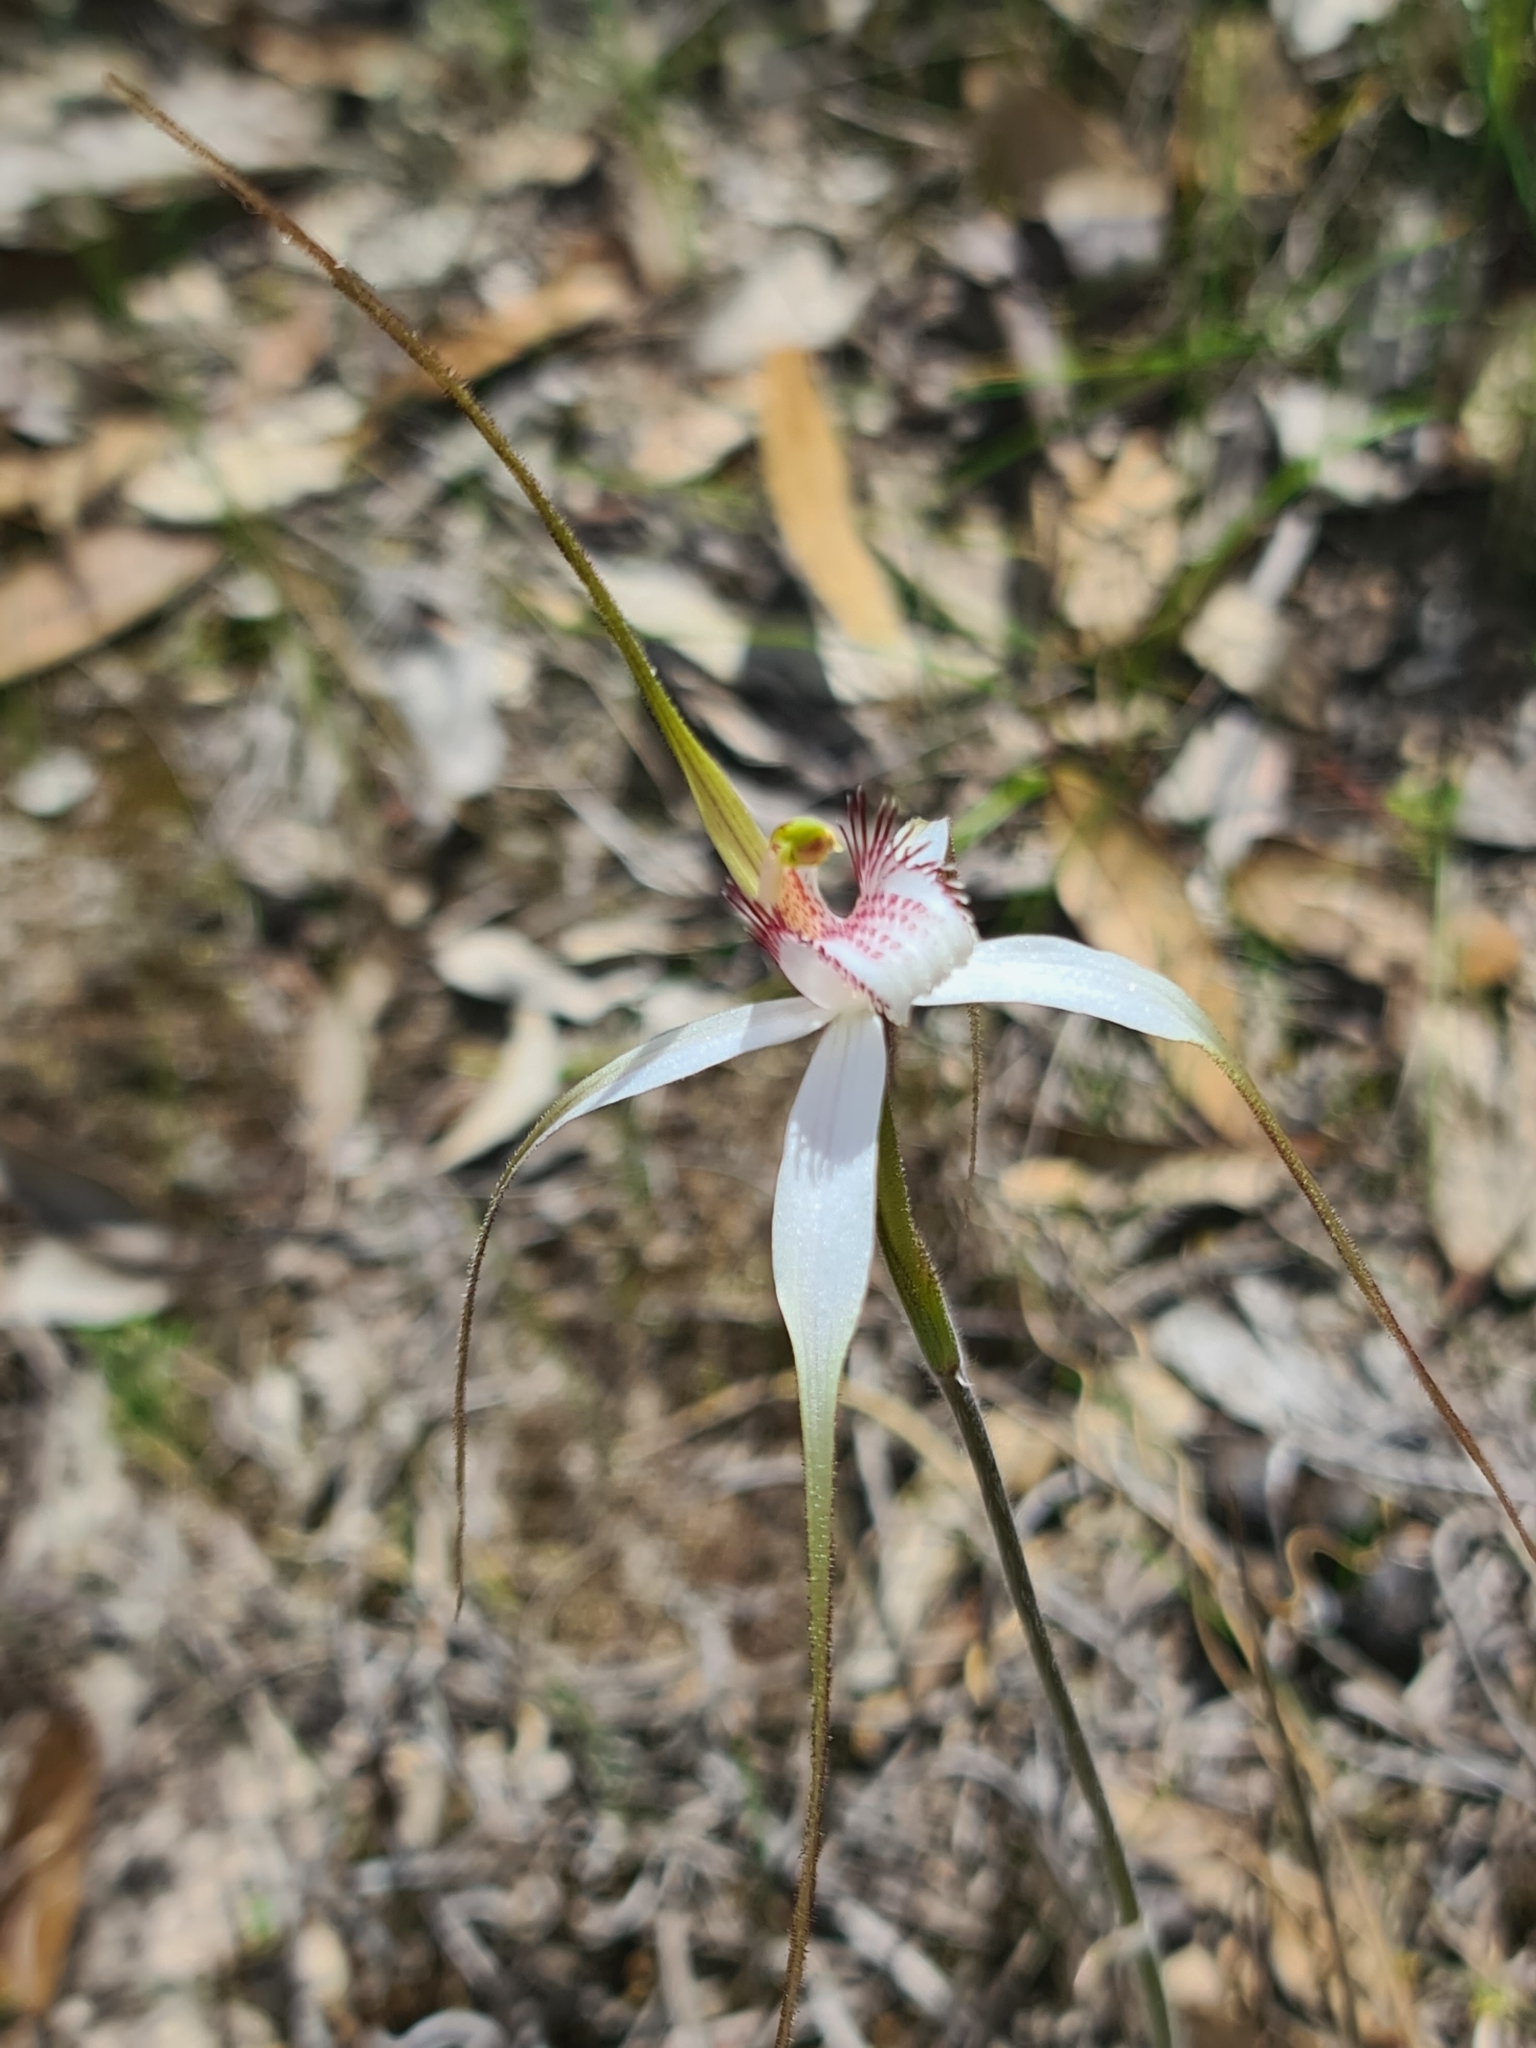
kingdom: Plantae
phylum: Tracheophyta
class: Liliopsida
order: Asparagales
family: Orchidaceae
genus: Caladenia
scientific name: Caladenia longicauda
